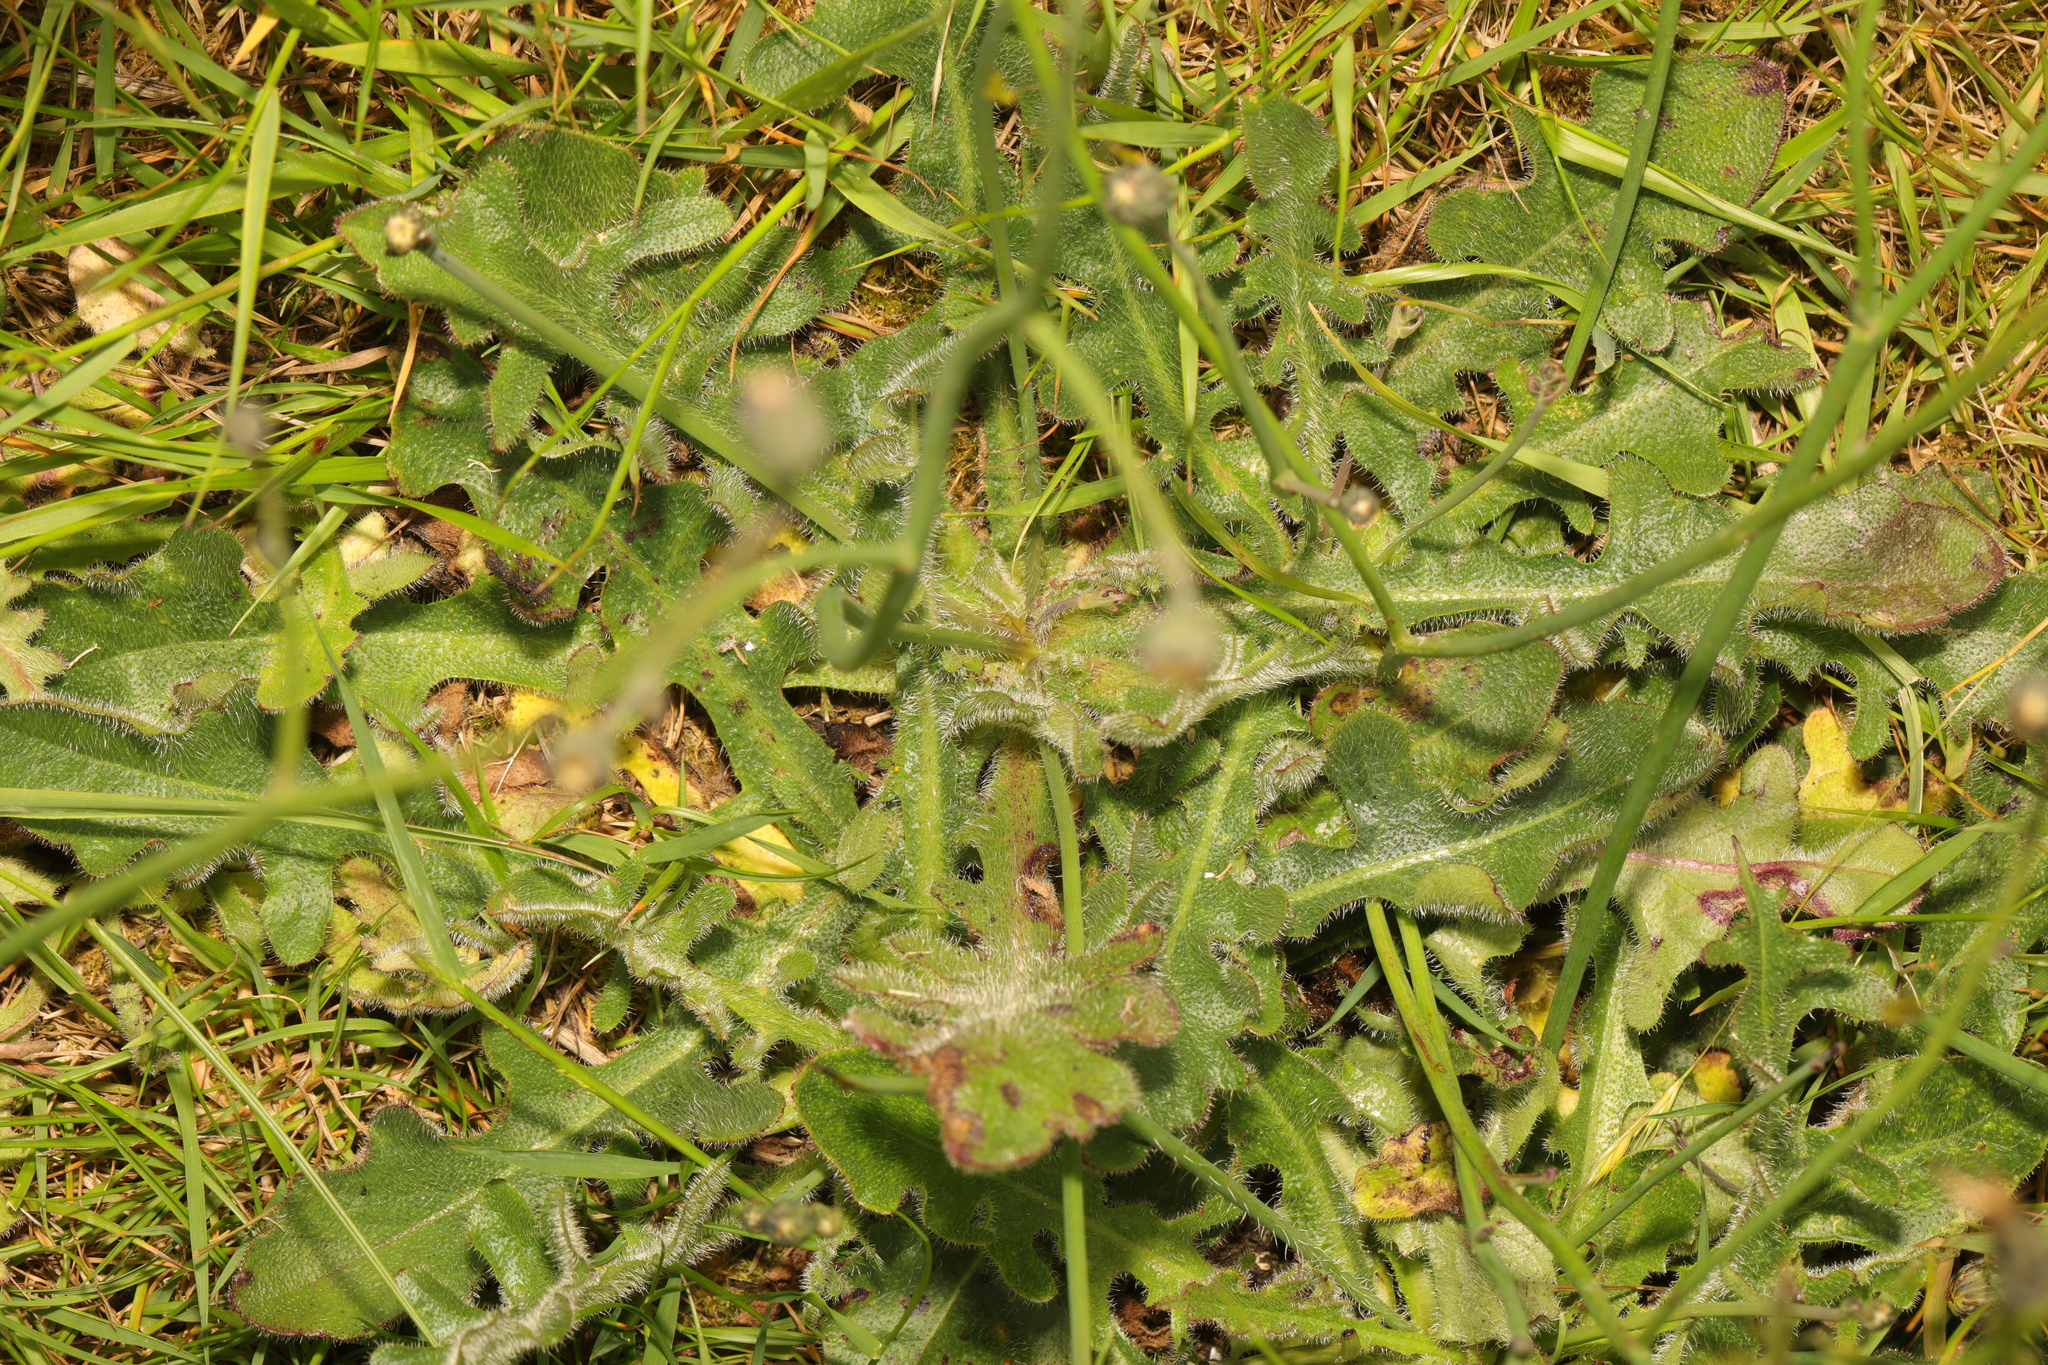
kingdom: Plantae
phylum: Tracheophyta
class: Magnoliopsida
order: Asterales
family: Asteraceae
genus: Hypochaeris
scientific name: Hypochaeris radicata
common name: Flatweed
